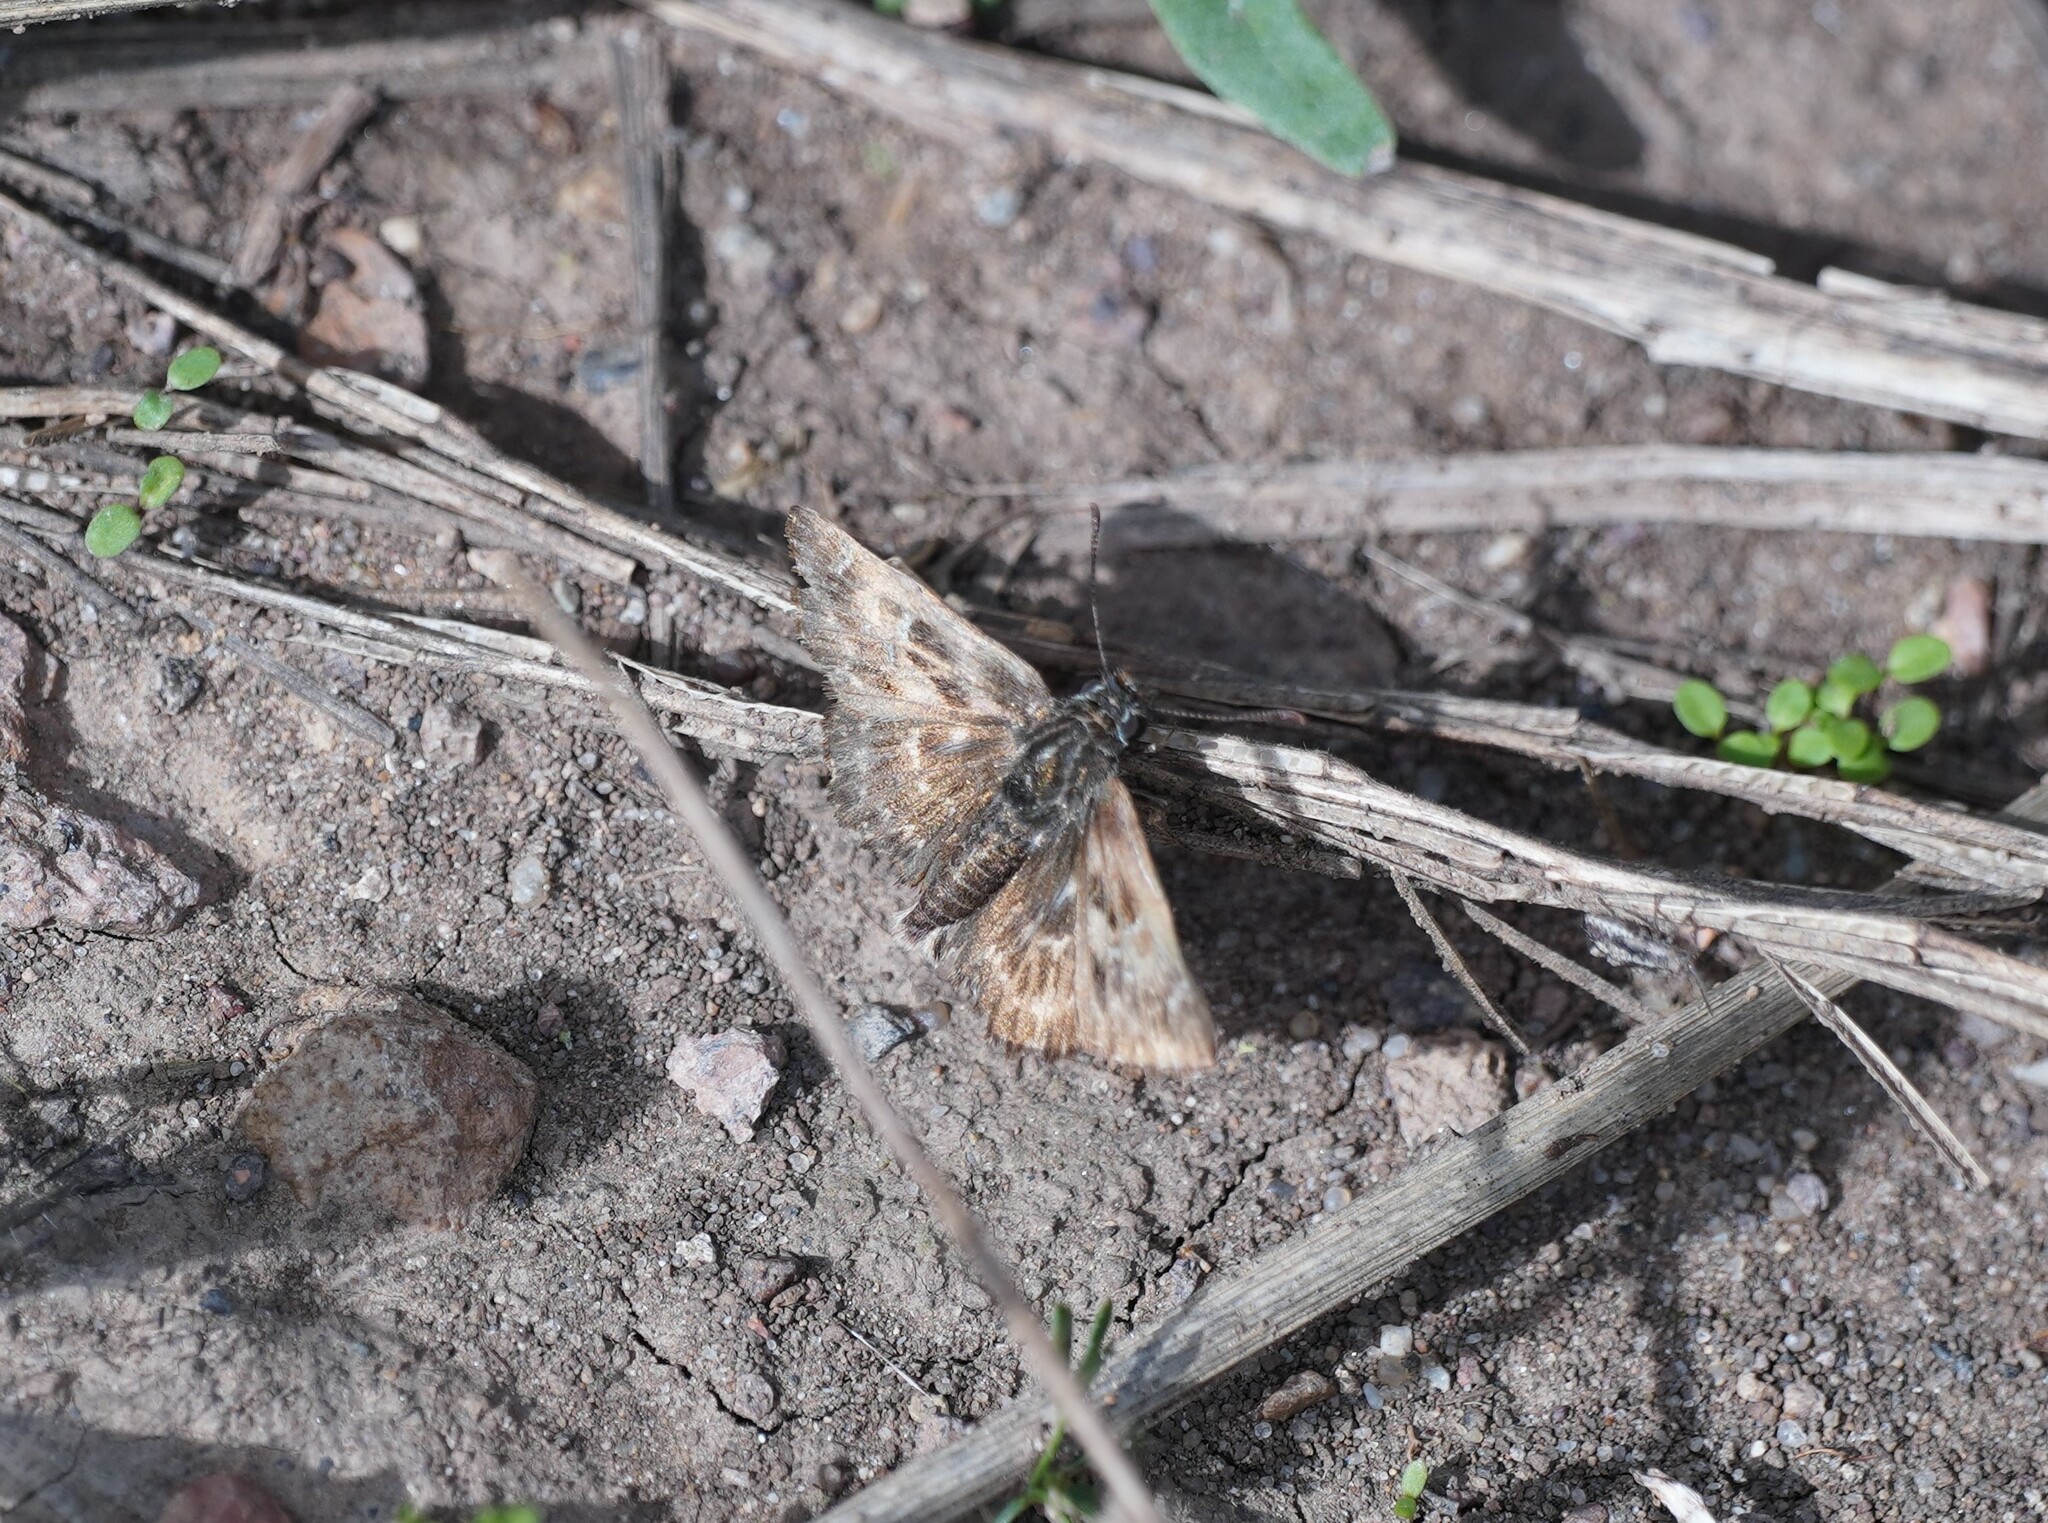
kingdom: Animalia
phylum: Arthropoda
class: Insecta
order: Lepidoptera
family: Hesperiidae
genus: Carcharodus
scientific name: Carcharodus alceae
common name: Mallow skipper
